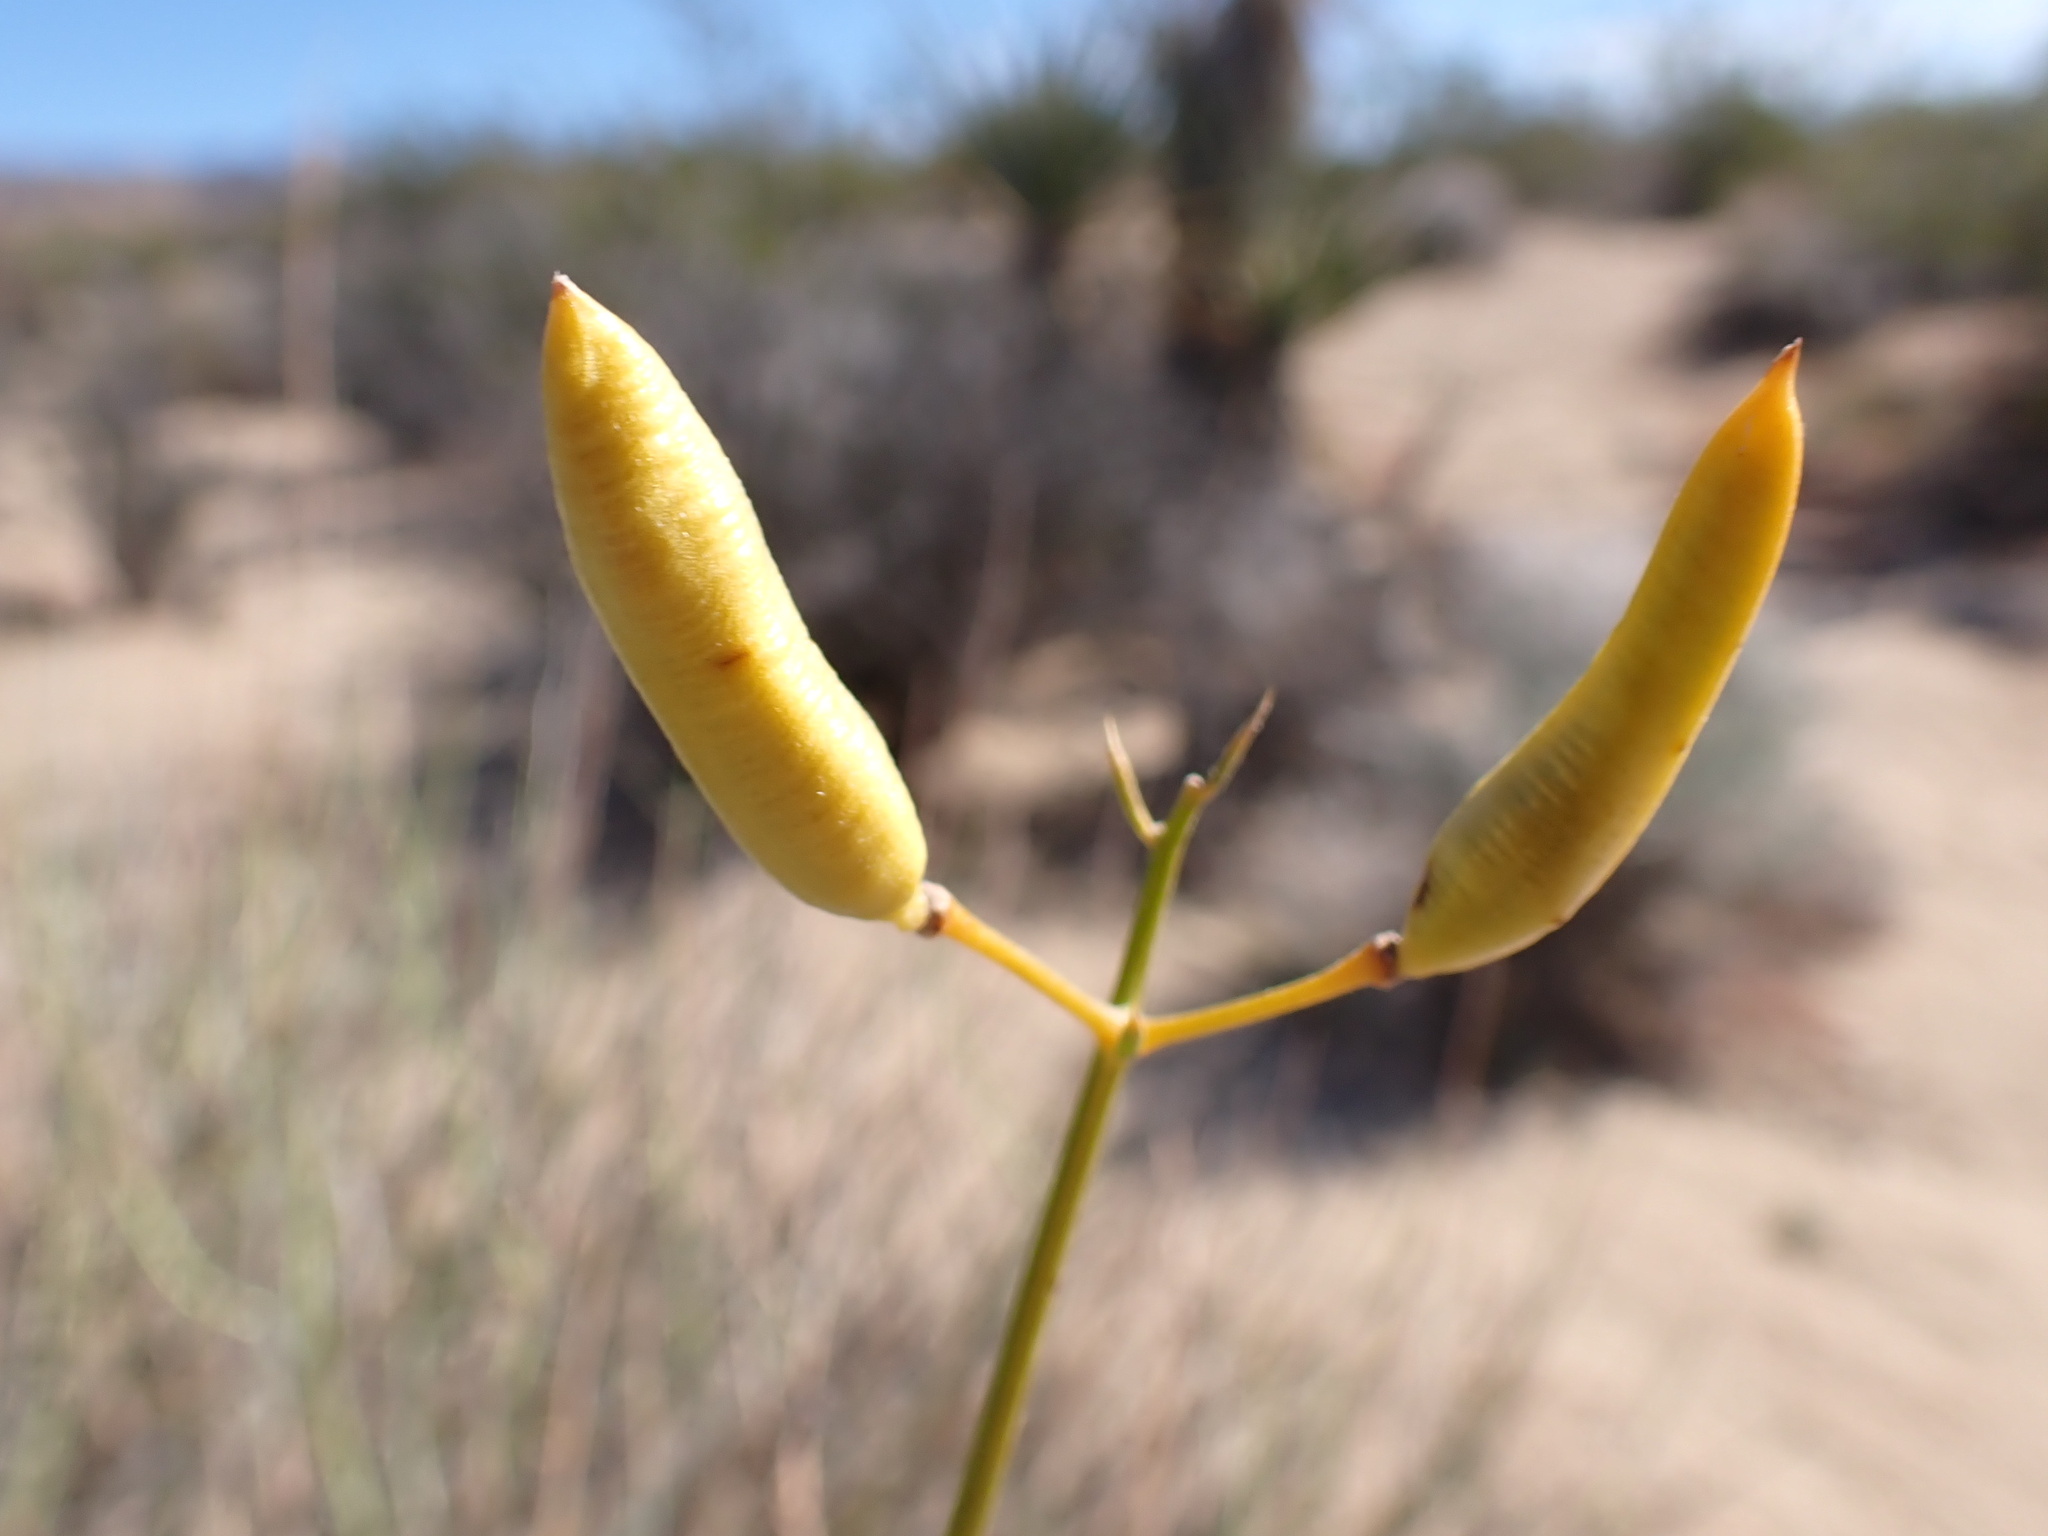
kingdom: Plantae
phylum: Tracheophyta
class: Magnoliopsida
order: Fabales
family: Fabaceae
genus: Senna
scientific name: Senna armata
